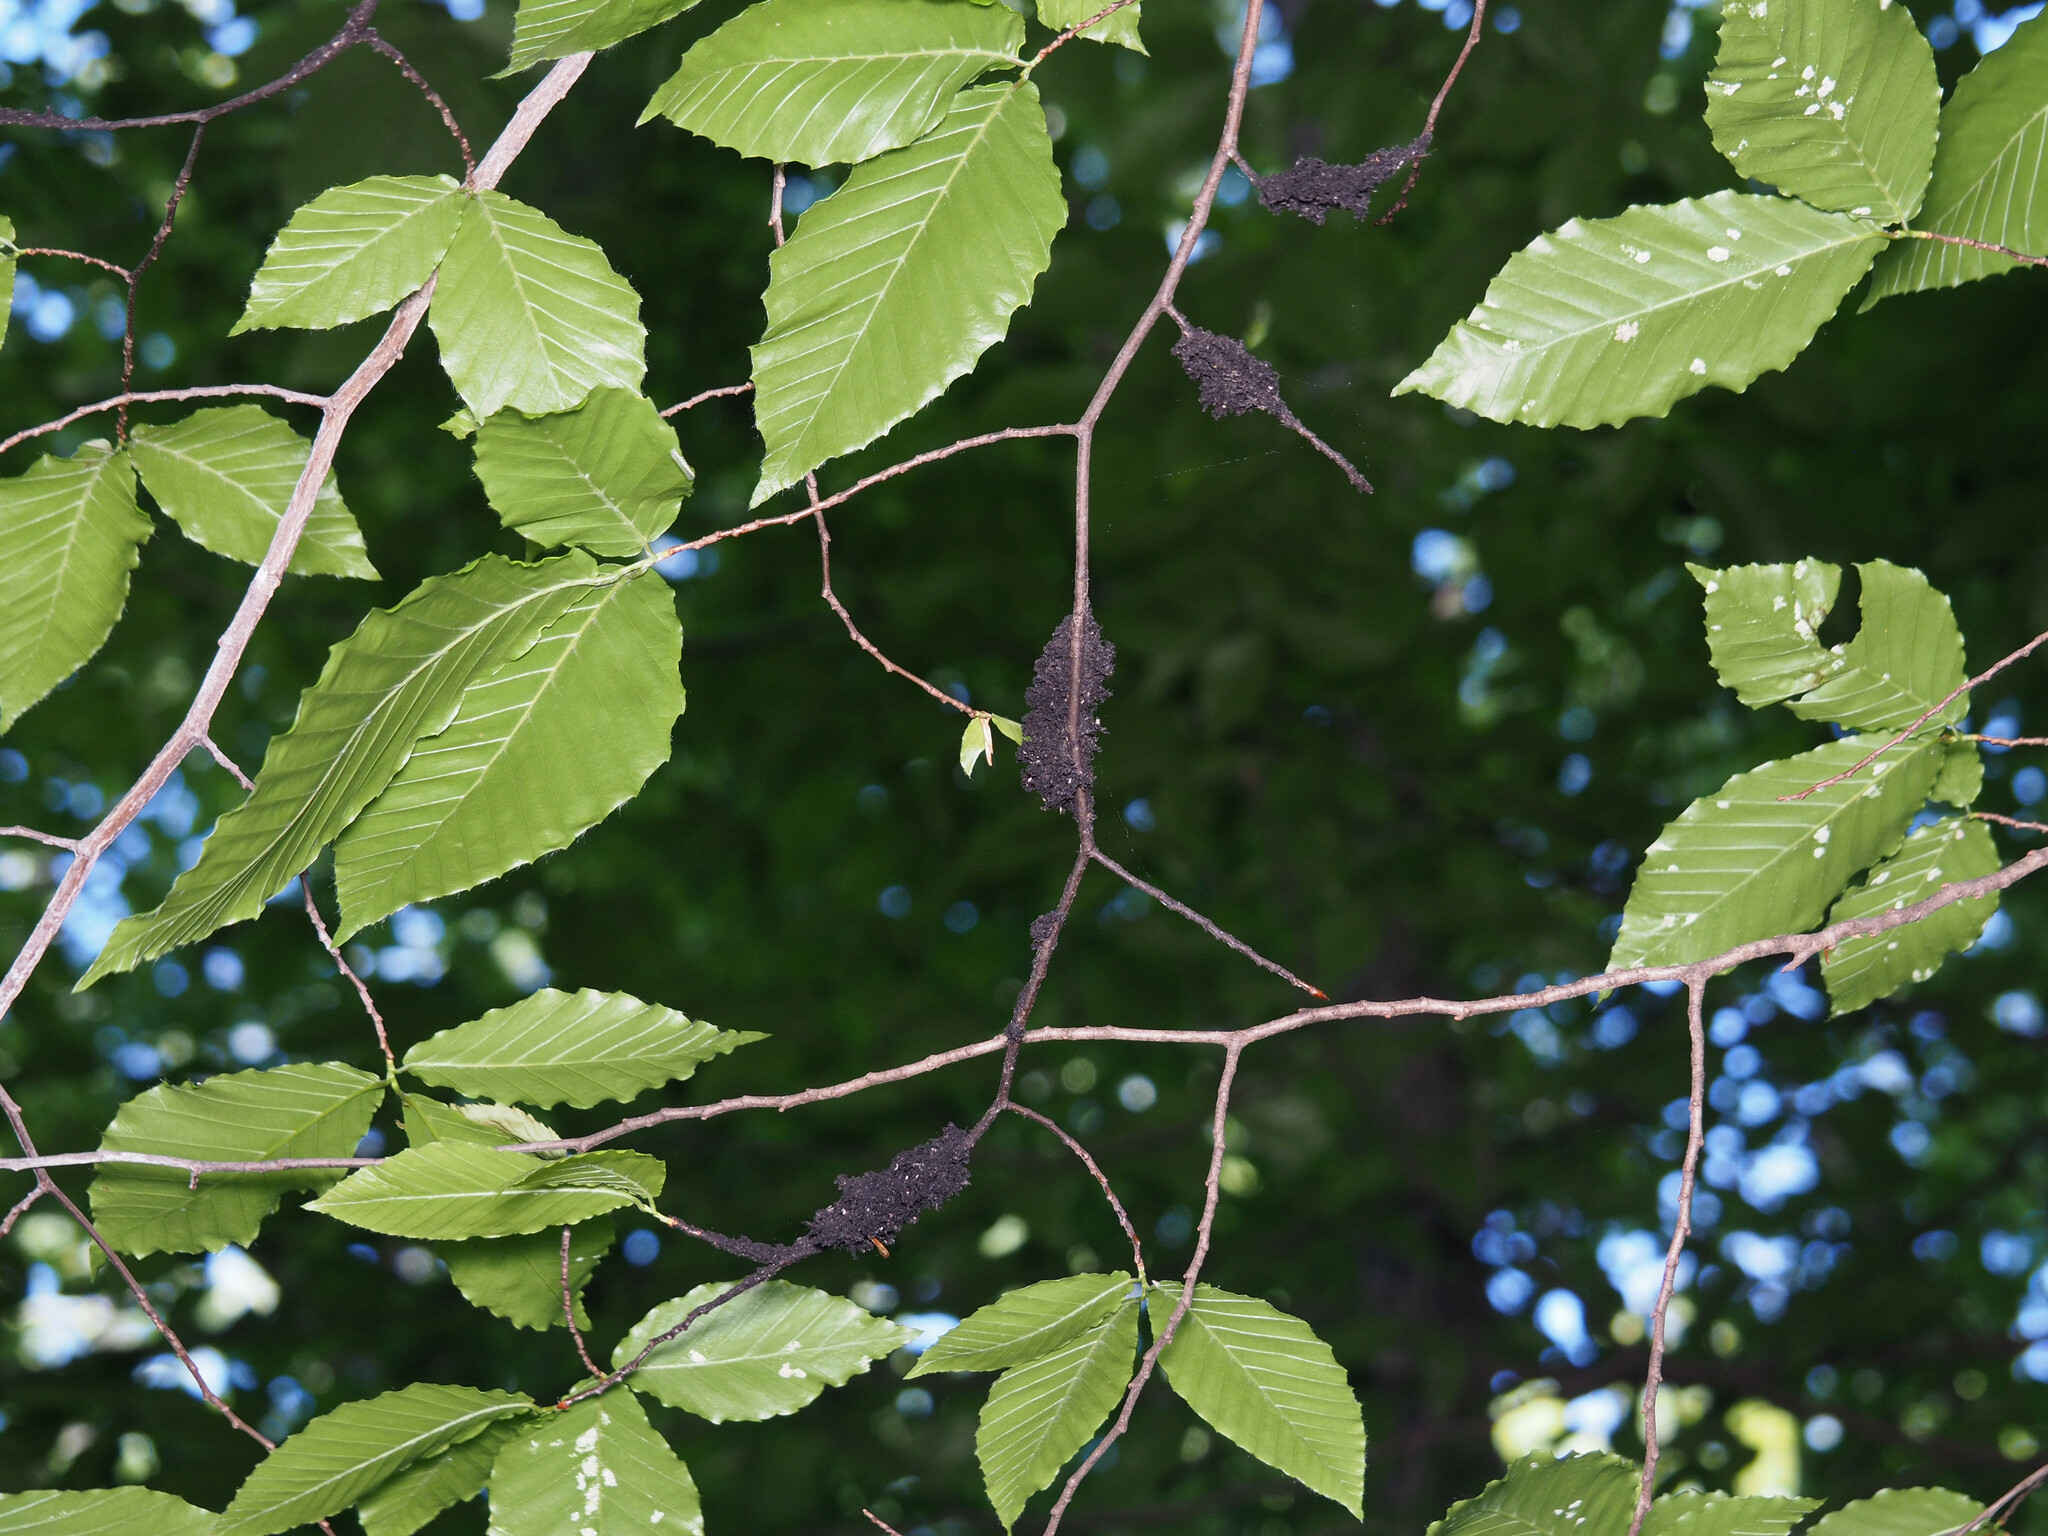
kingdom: Fungi
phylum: Ascomycota
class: Dothideomycetes
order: Capnodiales
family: Capnodiaceae
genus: Scorias
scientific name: Scorias spongiosa
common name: Black sooty mold
